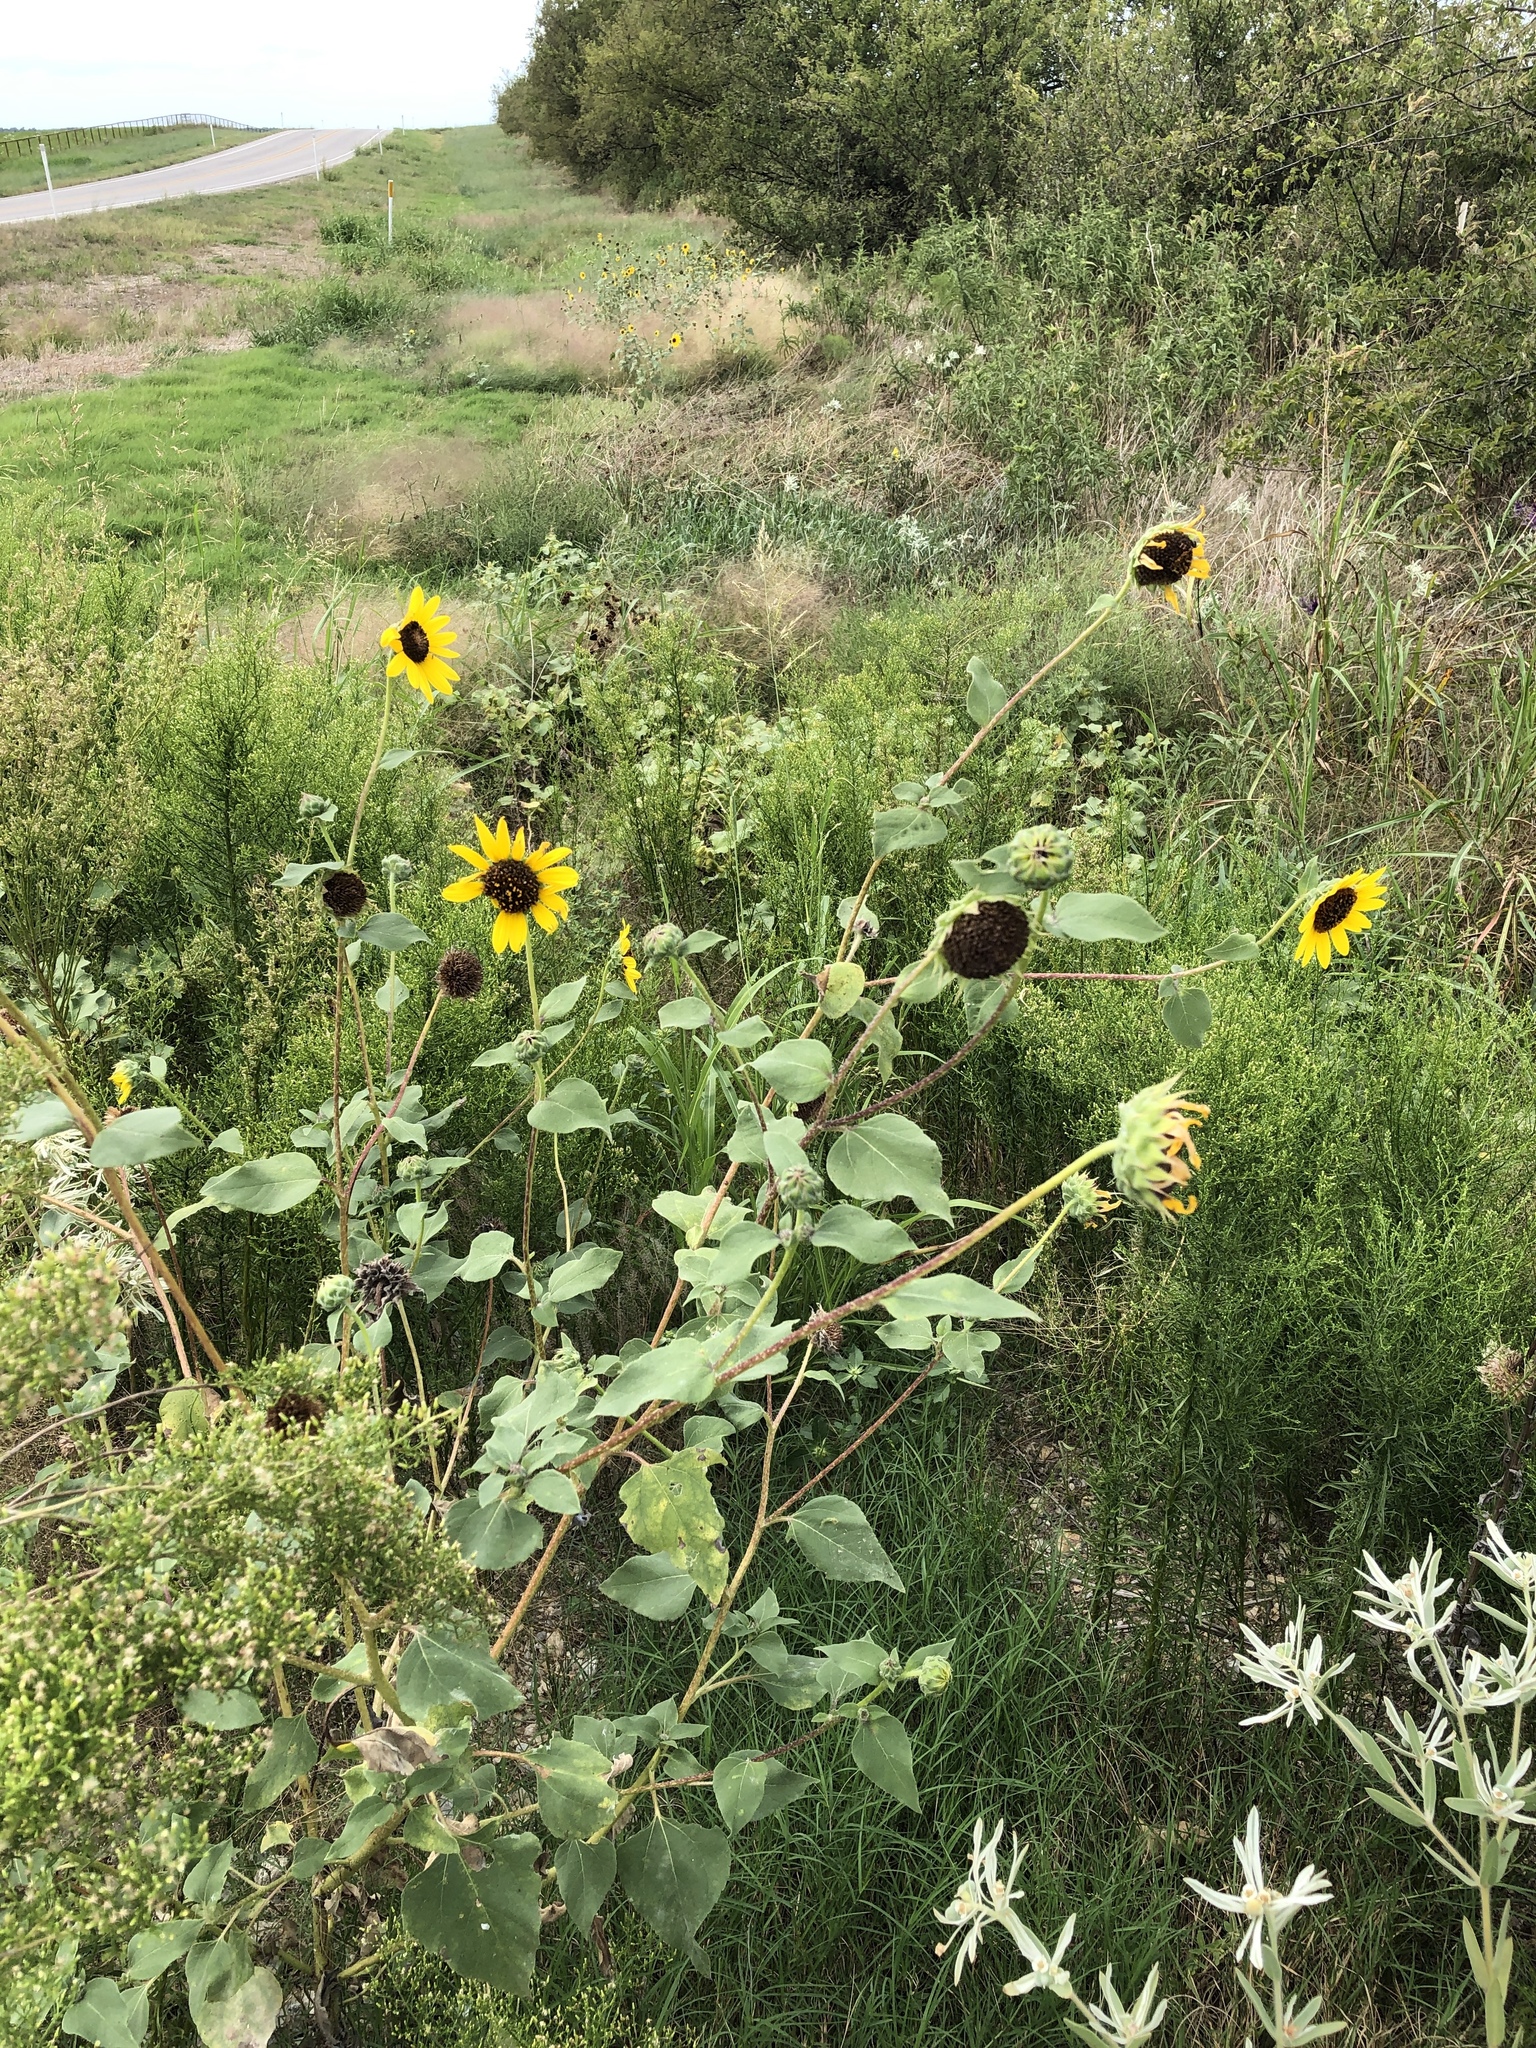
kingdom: Plantae
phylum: Tracheophyta
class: Magnoliopsida
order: Asterales
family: Asteraceae
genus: Helianthus
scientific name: Helianthus annuus
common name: Sunflower
